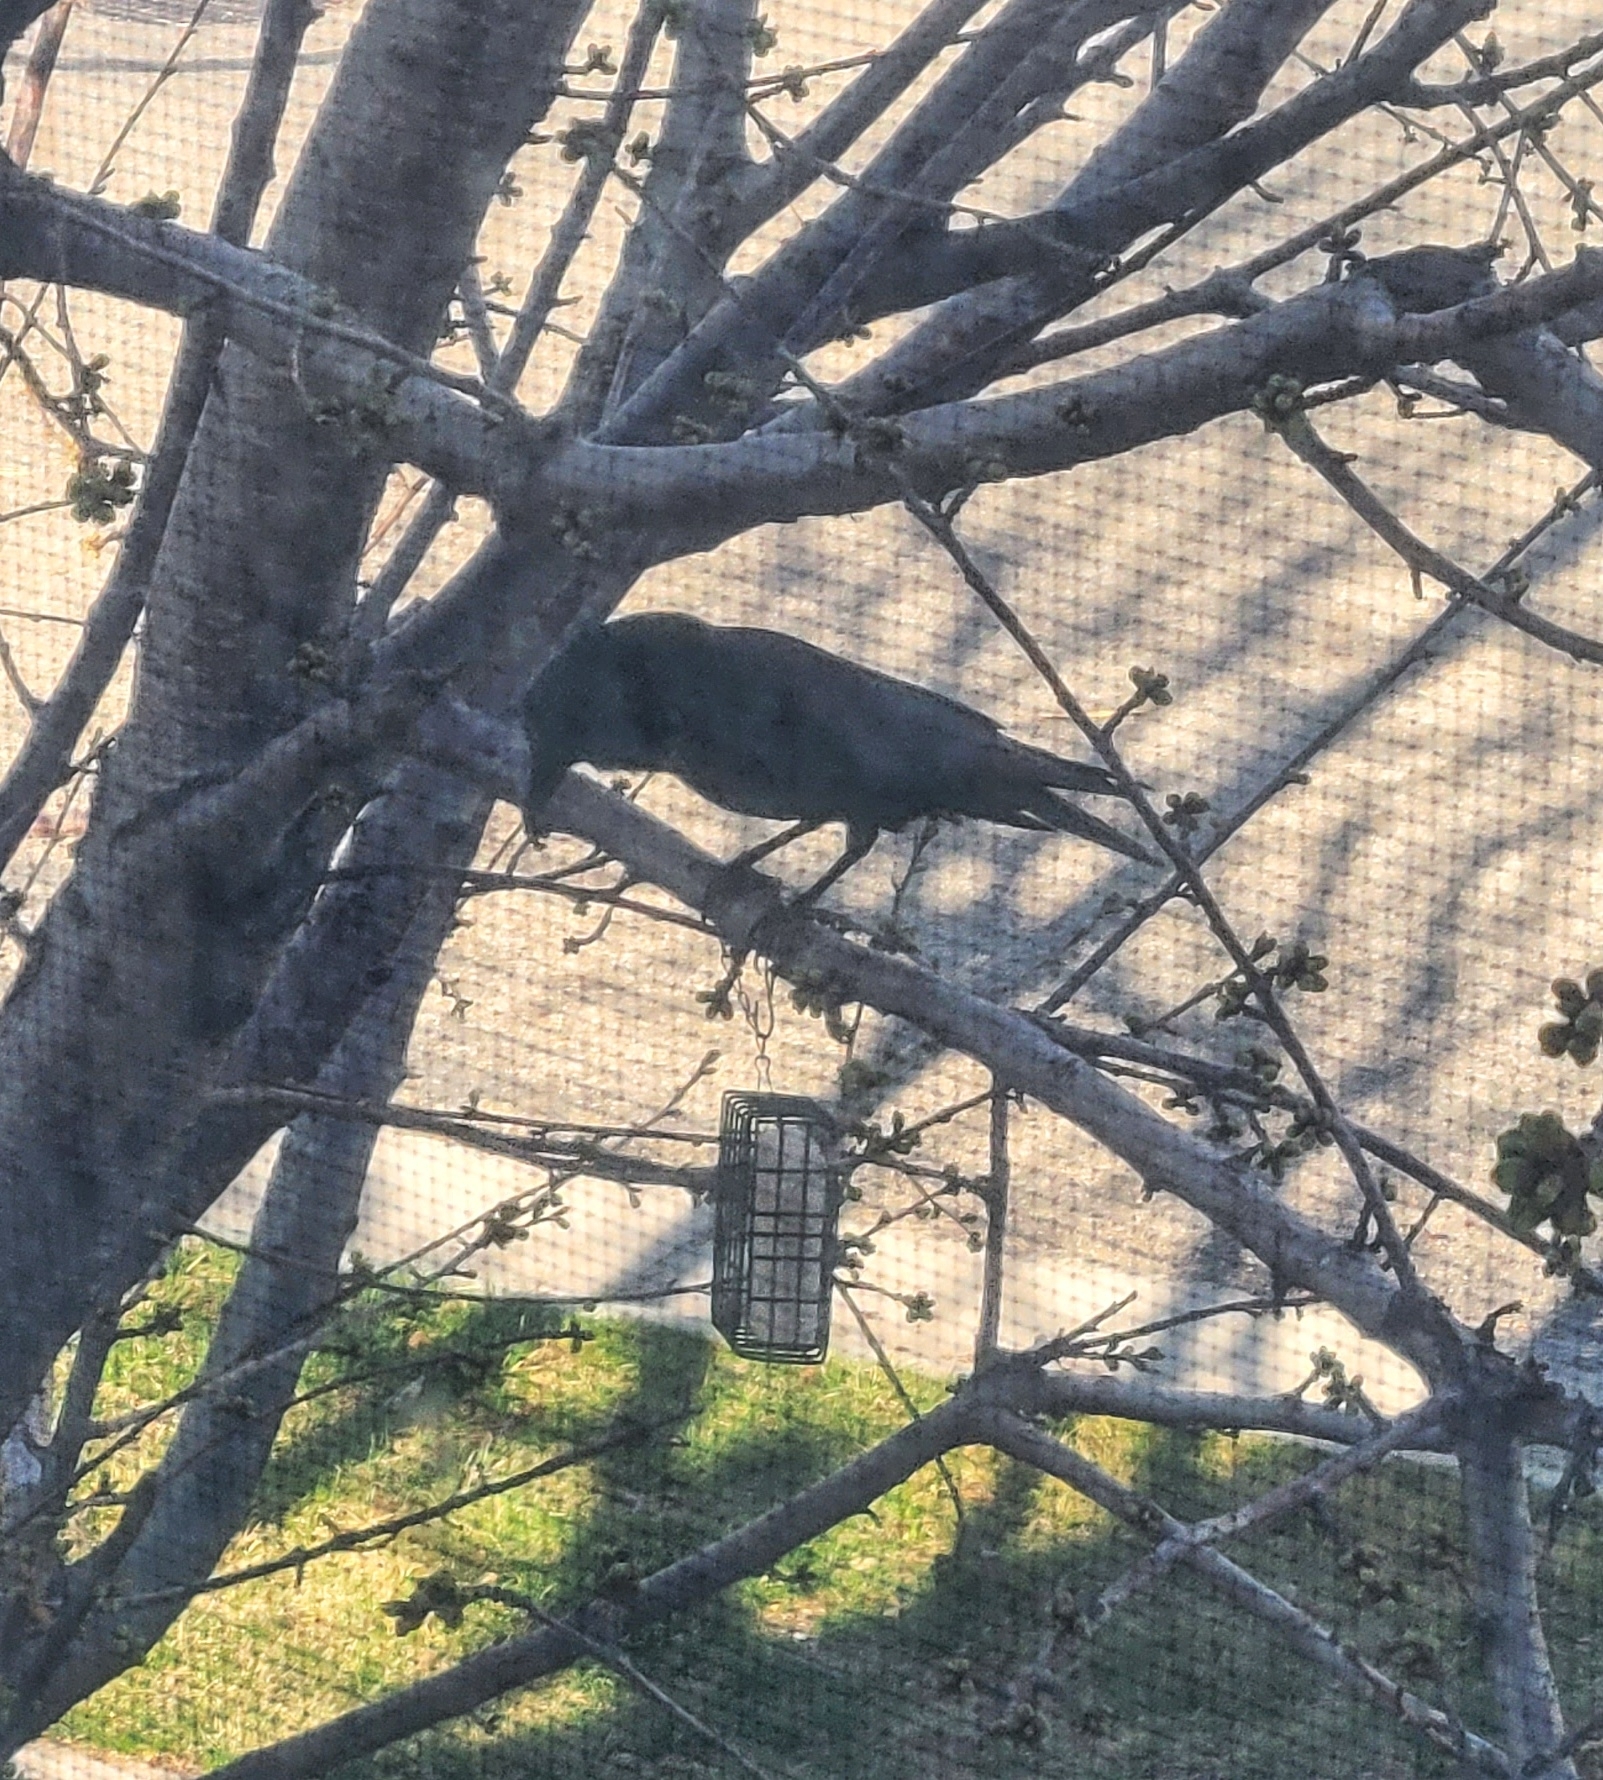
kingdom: Animalia
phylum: Chordata
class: Aves
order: Passeriformes
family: Corvidae
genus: Corvus
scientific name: Corvus brachyrhynchos
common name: American crow
